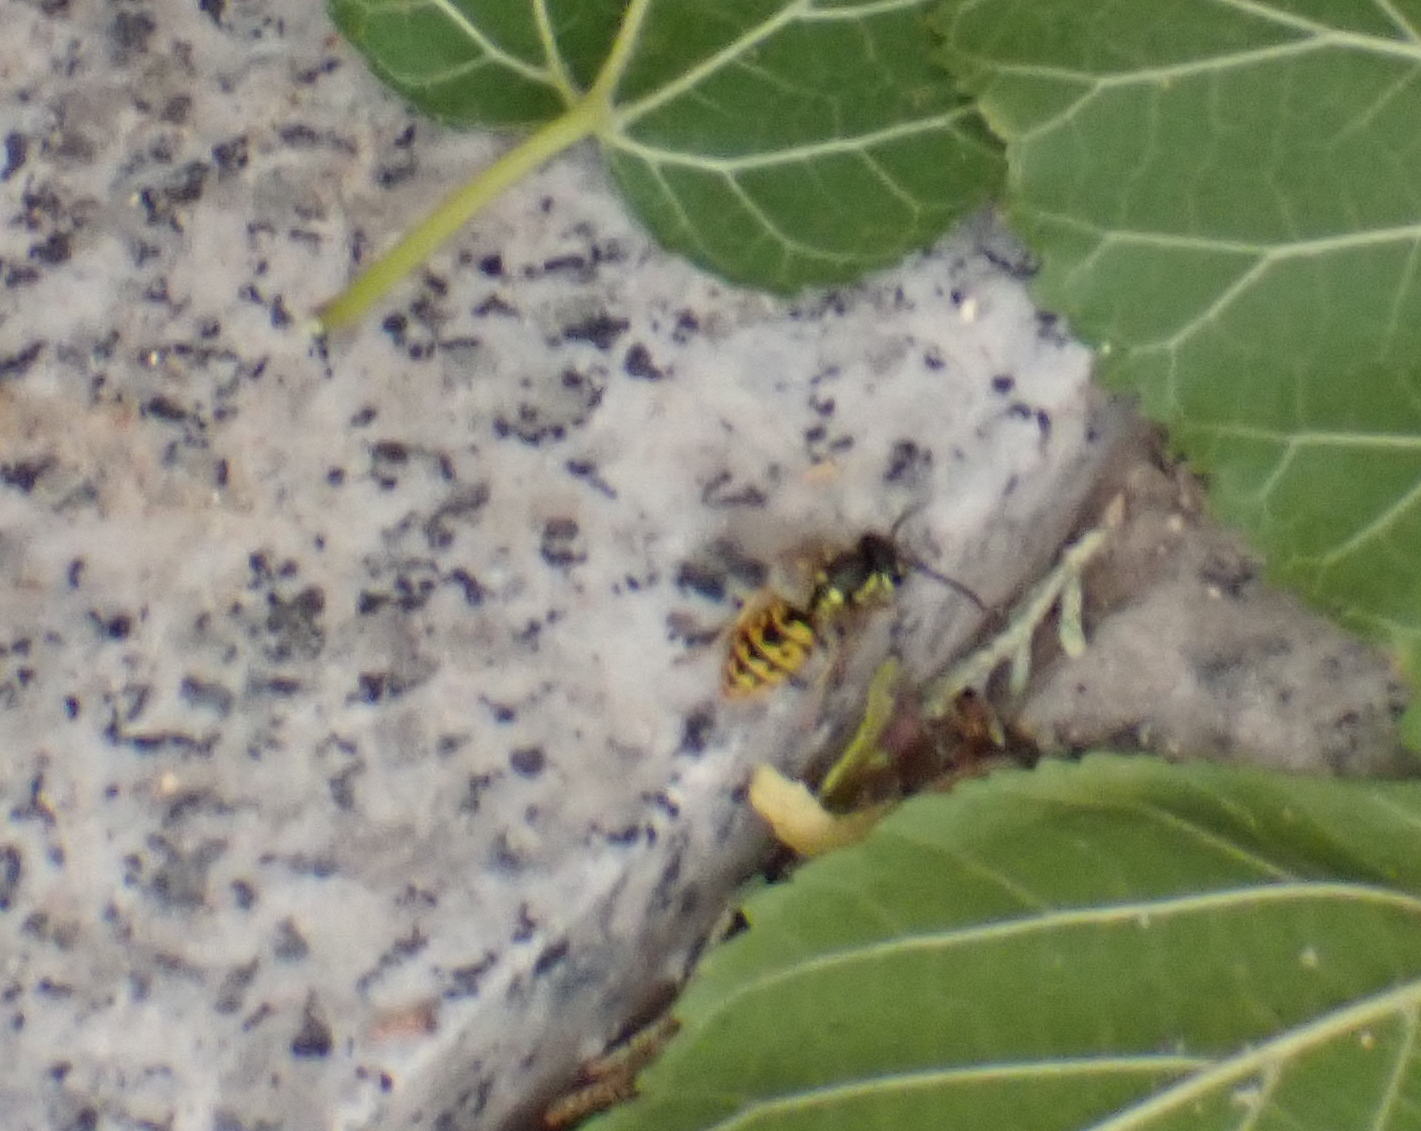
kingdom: Animalia
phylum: Arthropoda
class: Insecta
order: Hymenoptera
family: Vespidae
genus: Vespula
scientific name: Vespula germanica
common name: German wasp
